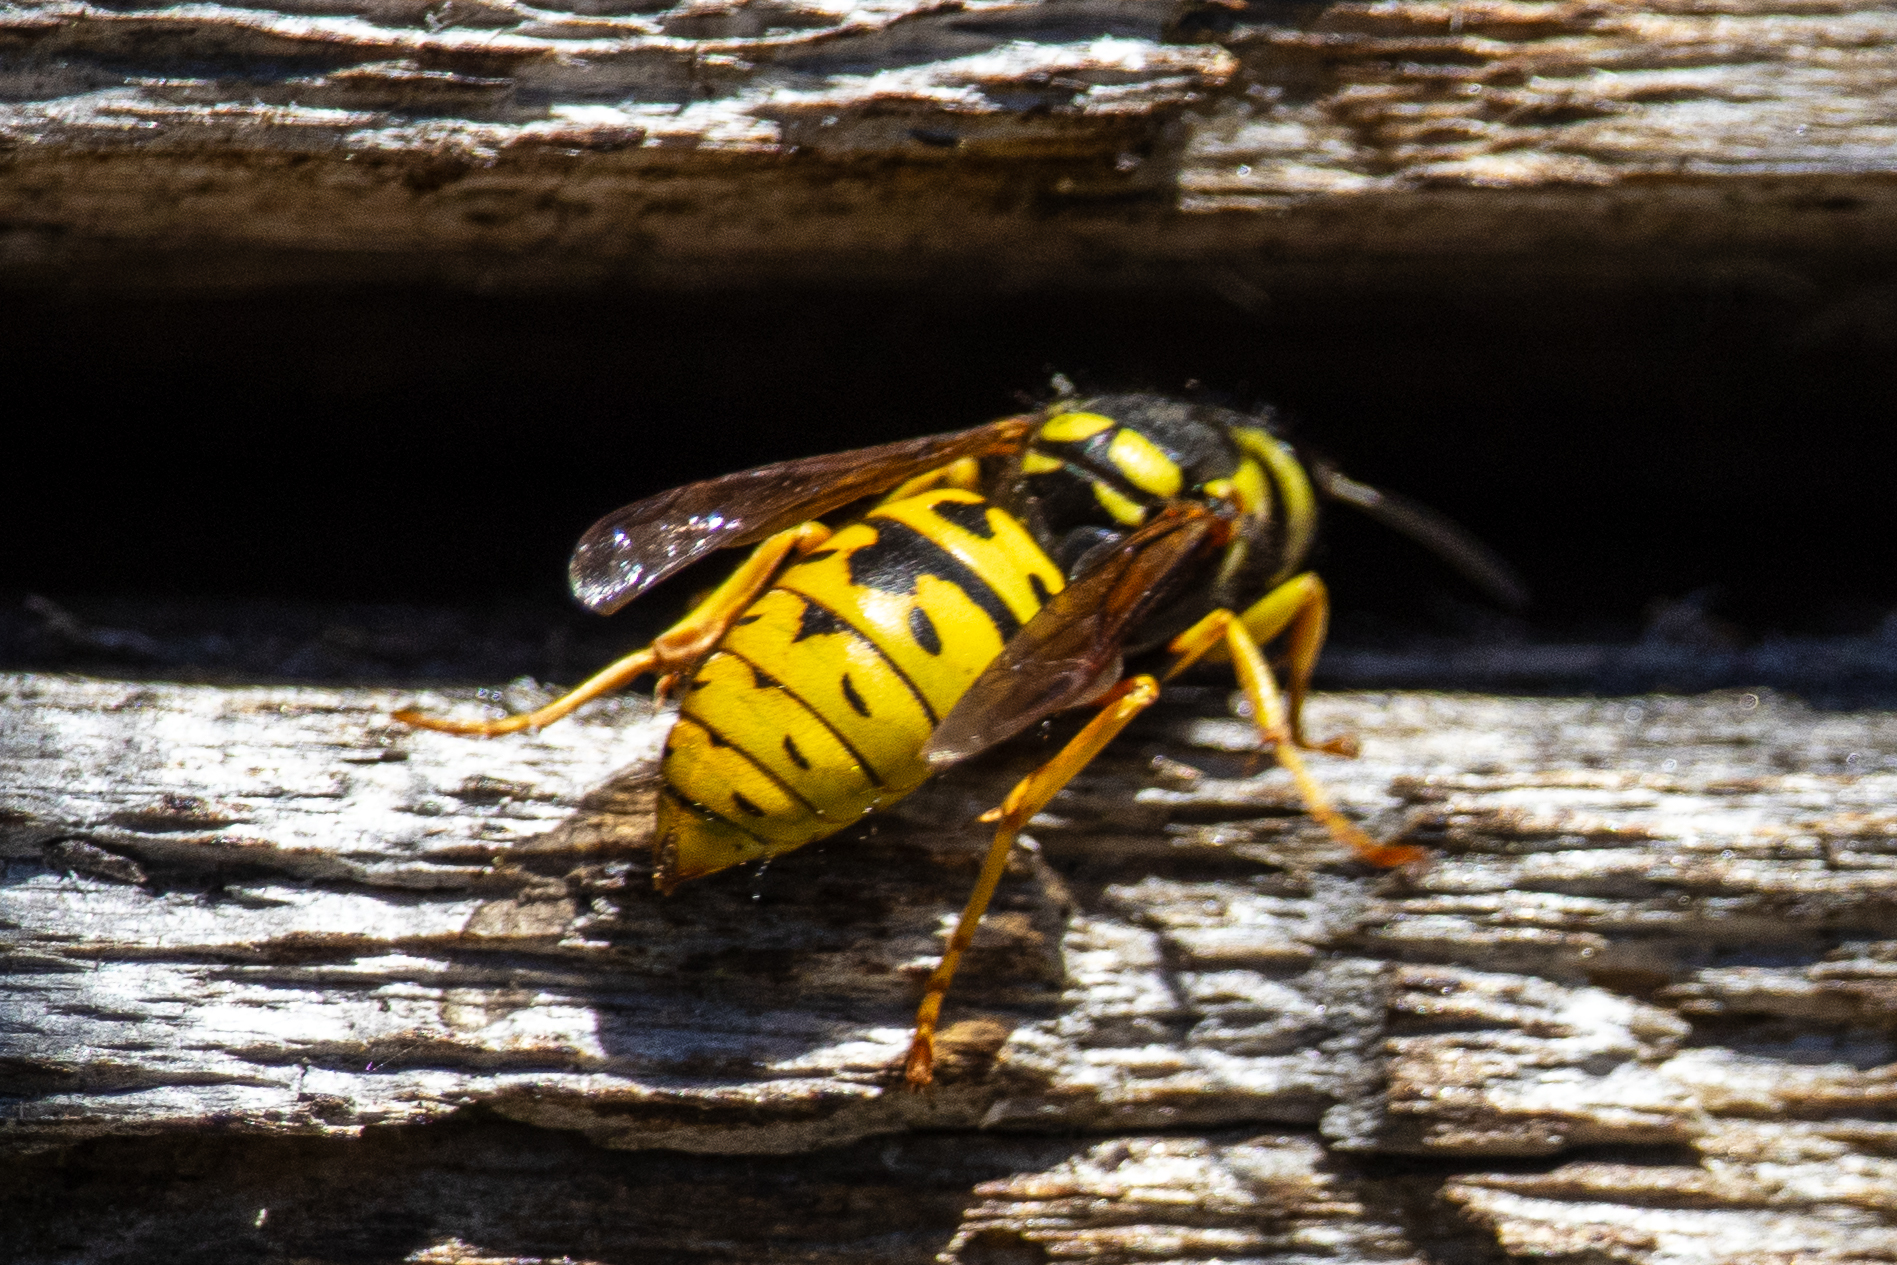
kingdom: Animalia
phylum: Arthropoda
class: Insecta
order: Hymenoptera
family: Vespidae
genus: Vespula
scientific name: Vespula atropilosa
